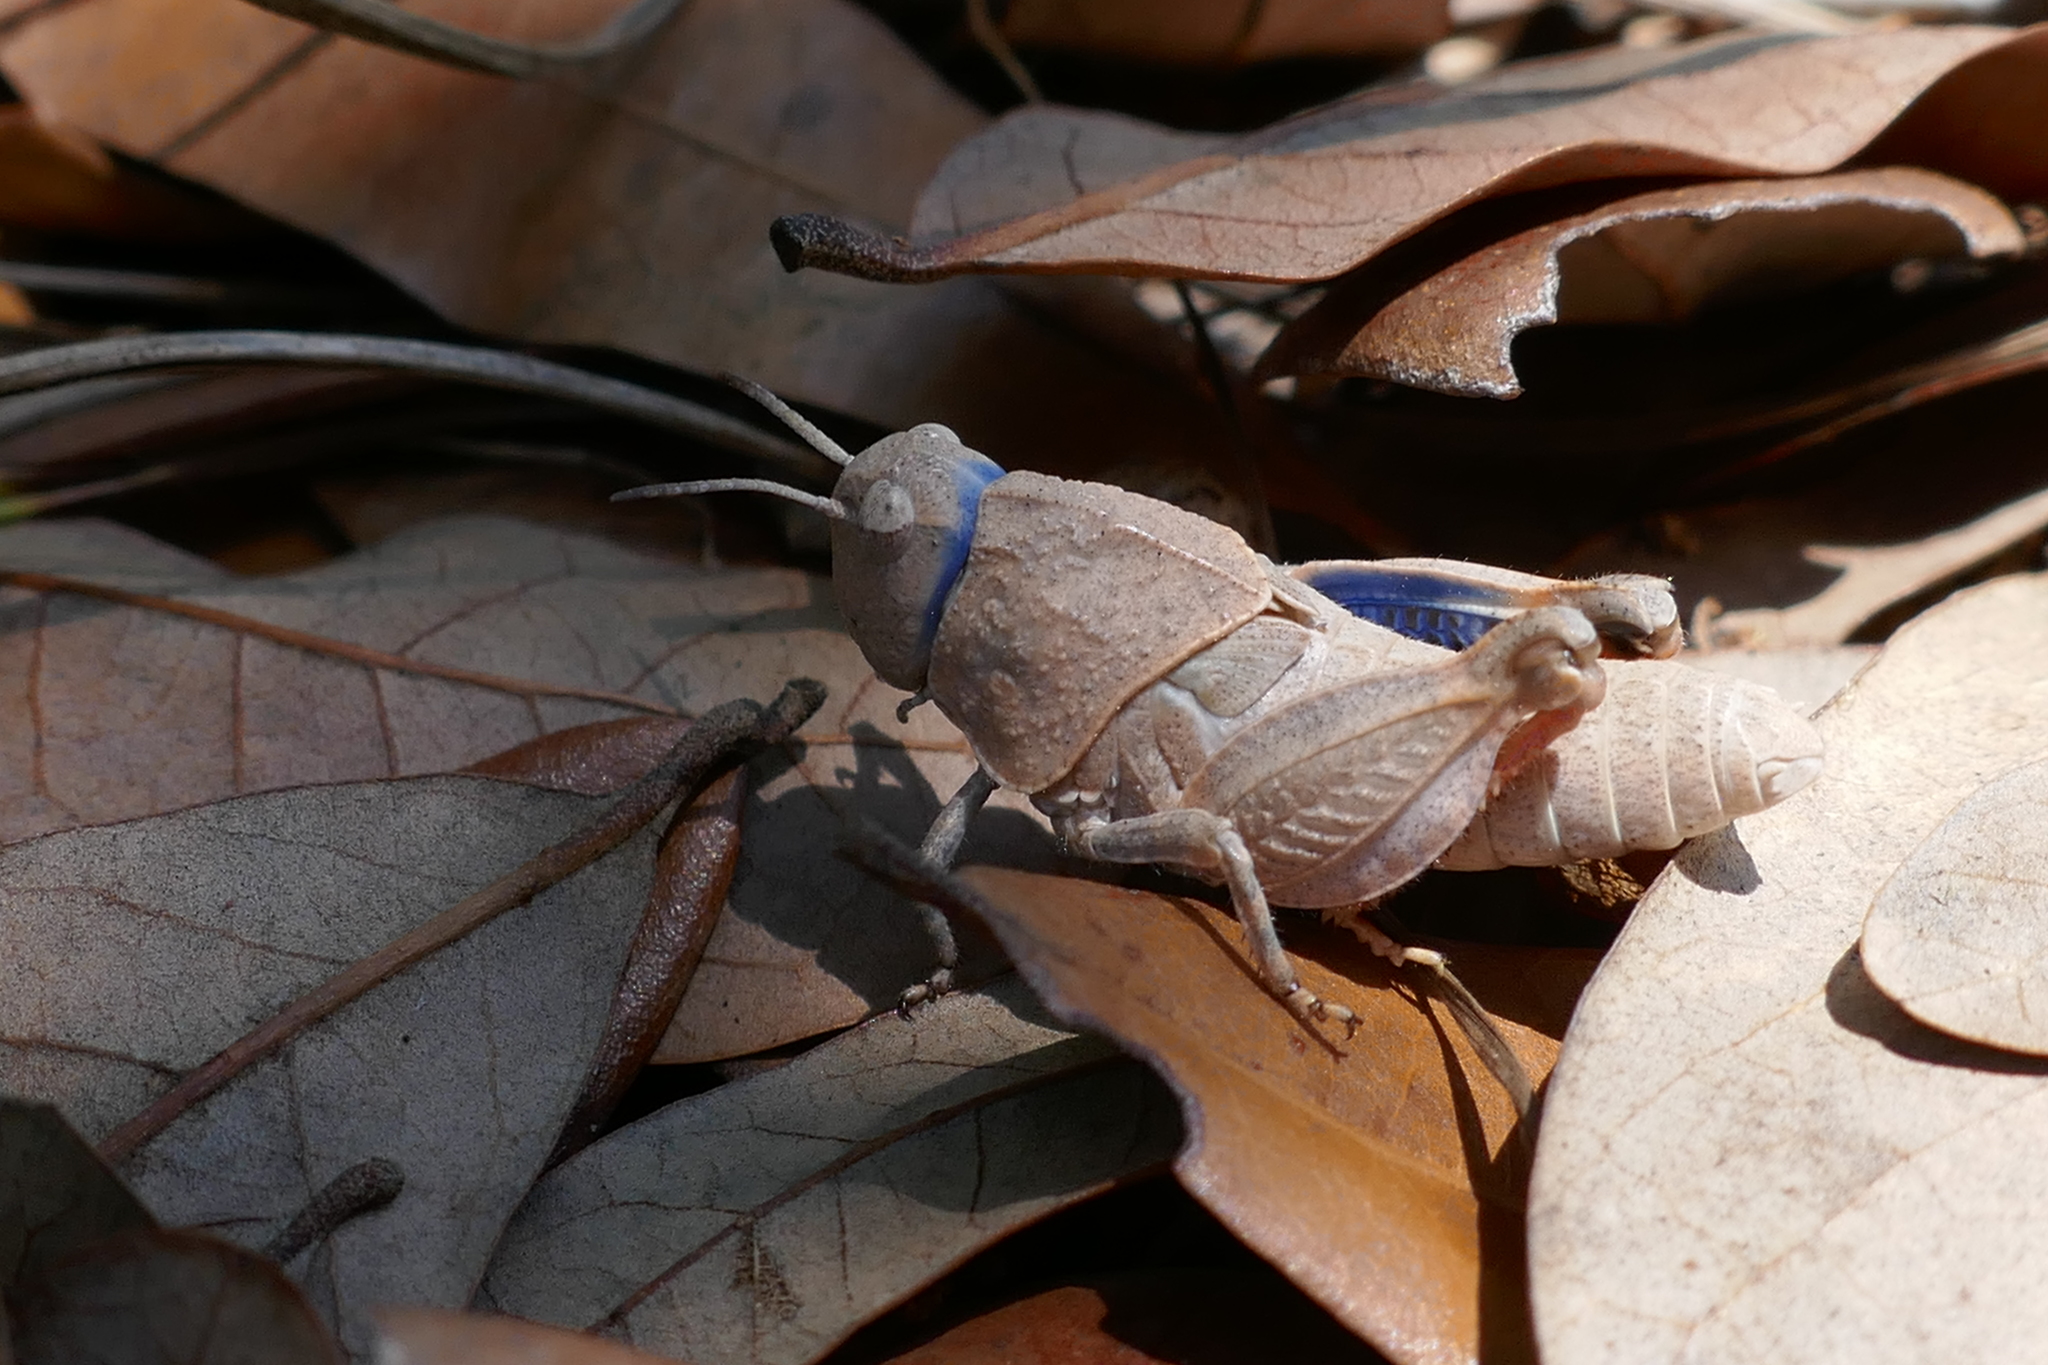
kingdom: Animalia
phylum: Arthropoda
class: Insecta
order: Orthoptera
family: Acrididae
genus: Pardalophora
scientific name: Pardalophora phoenicoptera
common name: Orange-winged grasshopper
